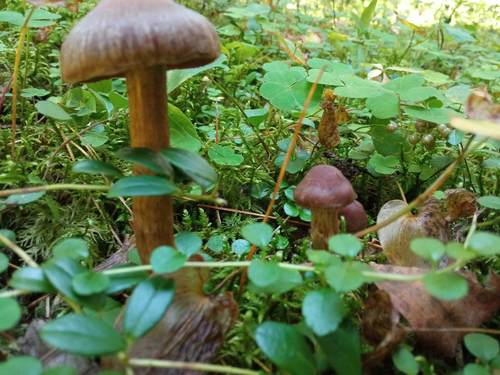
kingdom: Fungi
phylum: Basidiomycota
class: Agaricomycetes
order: Agaricales
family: Cortinariaceae
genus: Cortinarius
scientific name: Cortinarius brunneus
